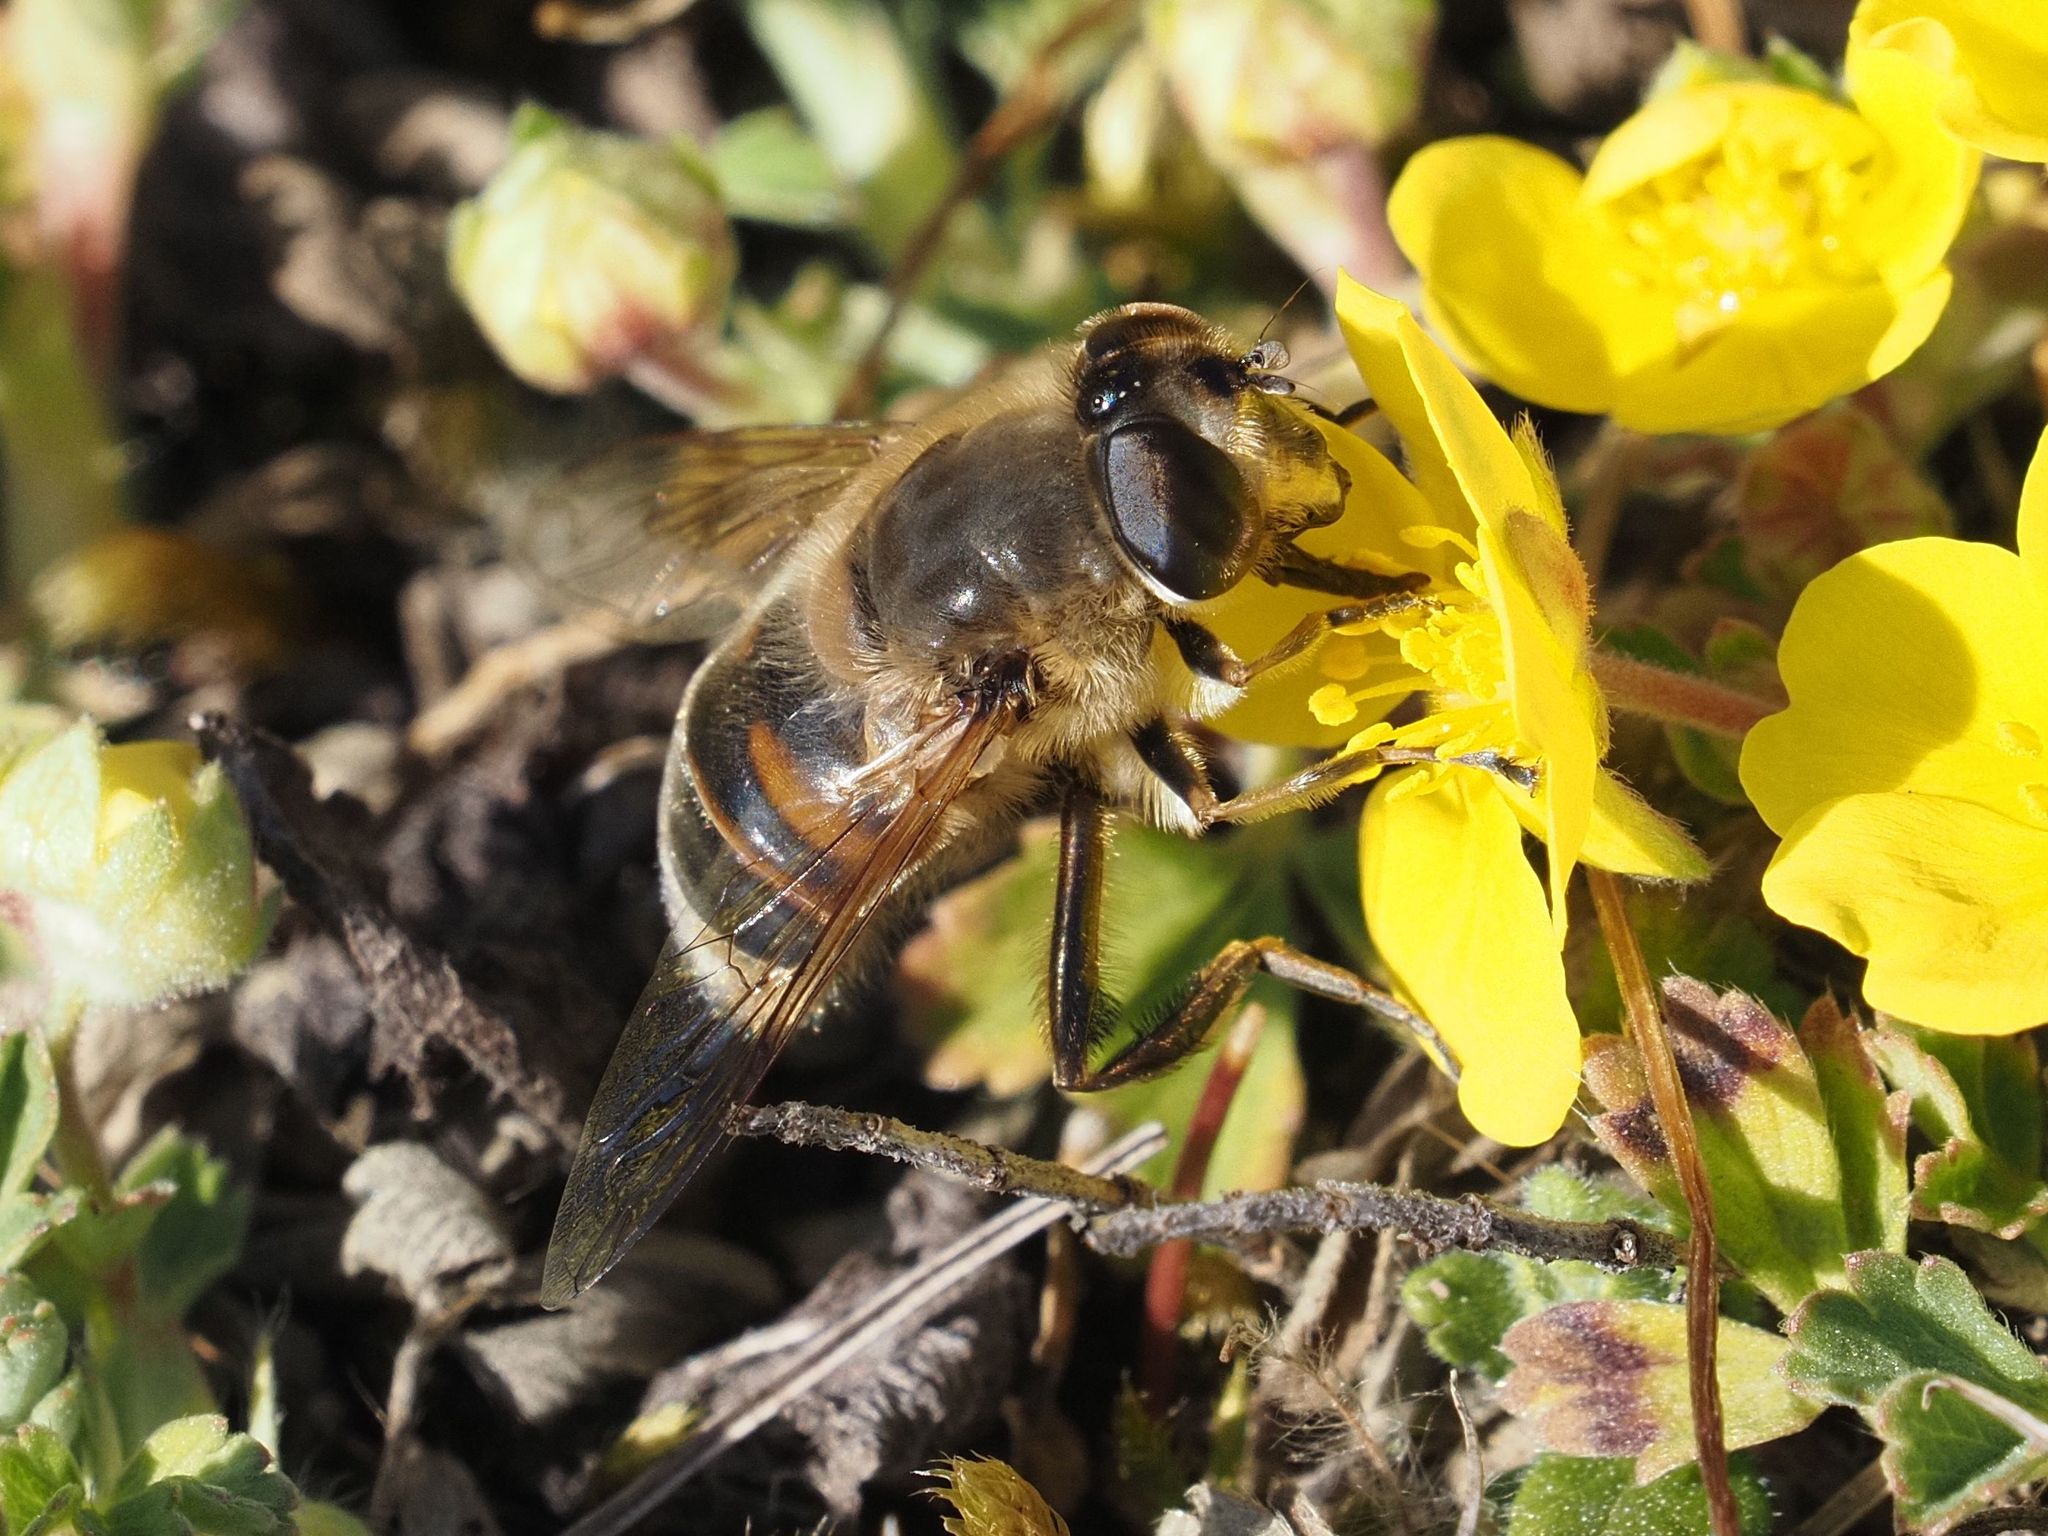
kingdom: Animalia
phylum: Arthropoda
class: Insecta
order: Diptera
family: Syrphidae
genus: Eristalis
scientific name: Eristalis tenax
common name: Drone fly
